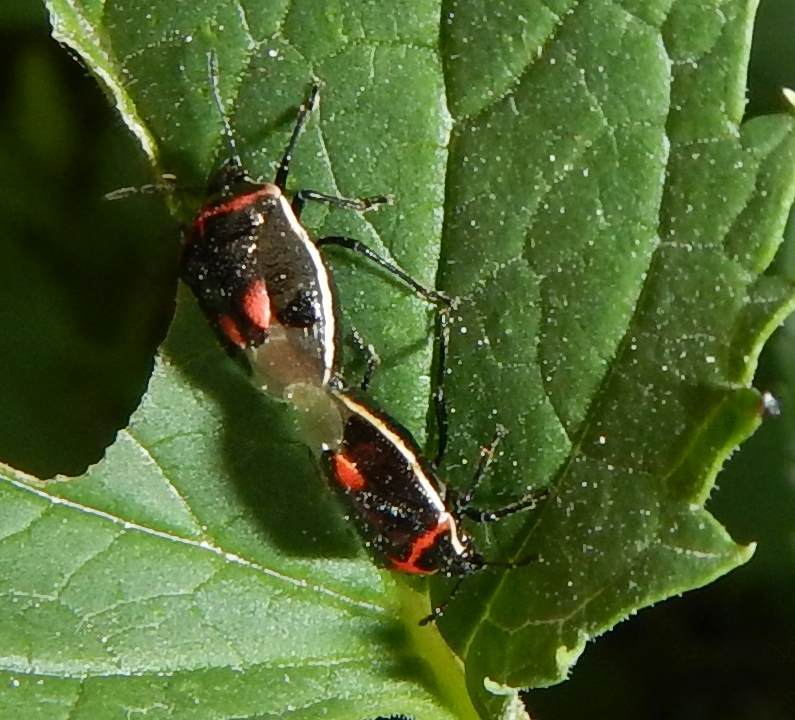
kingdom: Animalia
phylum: Arthropoda
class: Insecta
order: Hemiptera
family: Pentatomidae
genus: Cosmopepla
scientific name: Cosmopepla lintneriana
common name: Twice-stabbed stink bug
